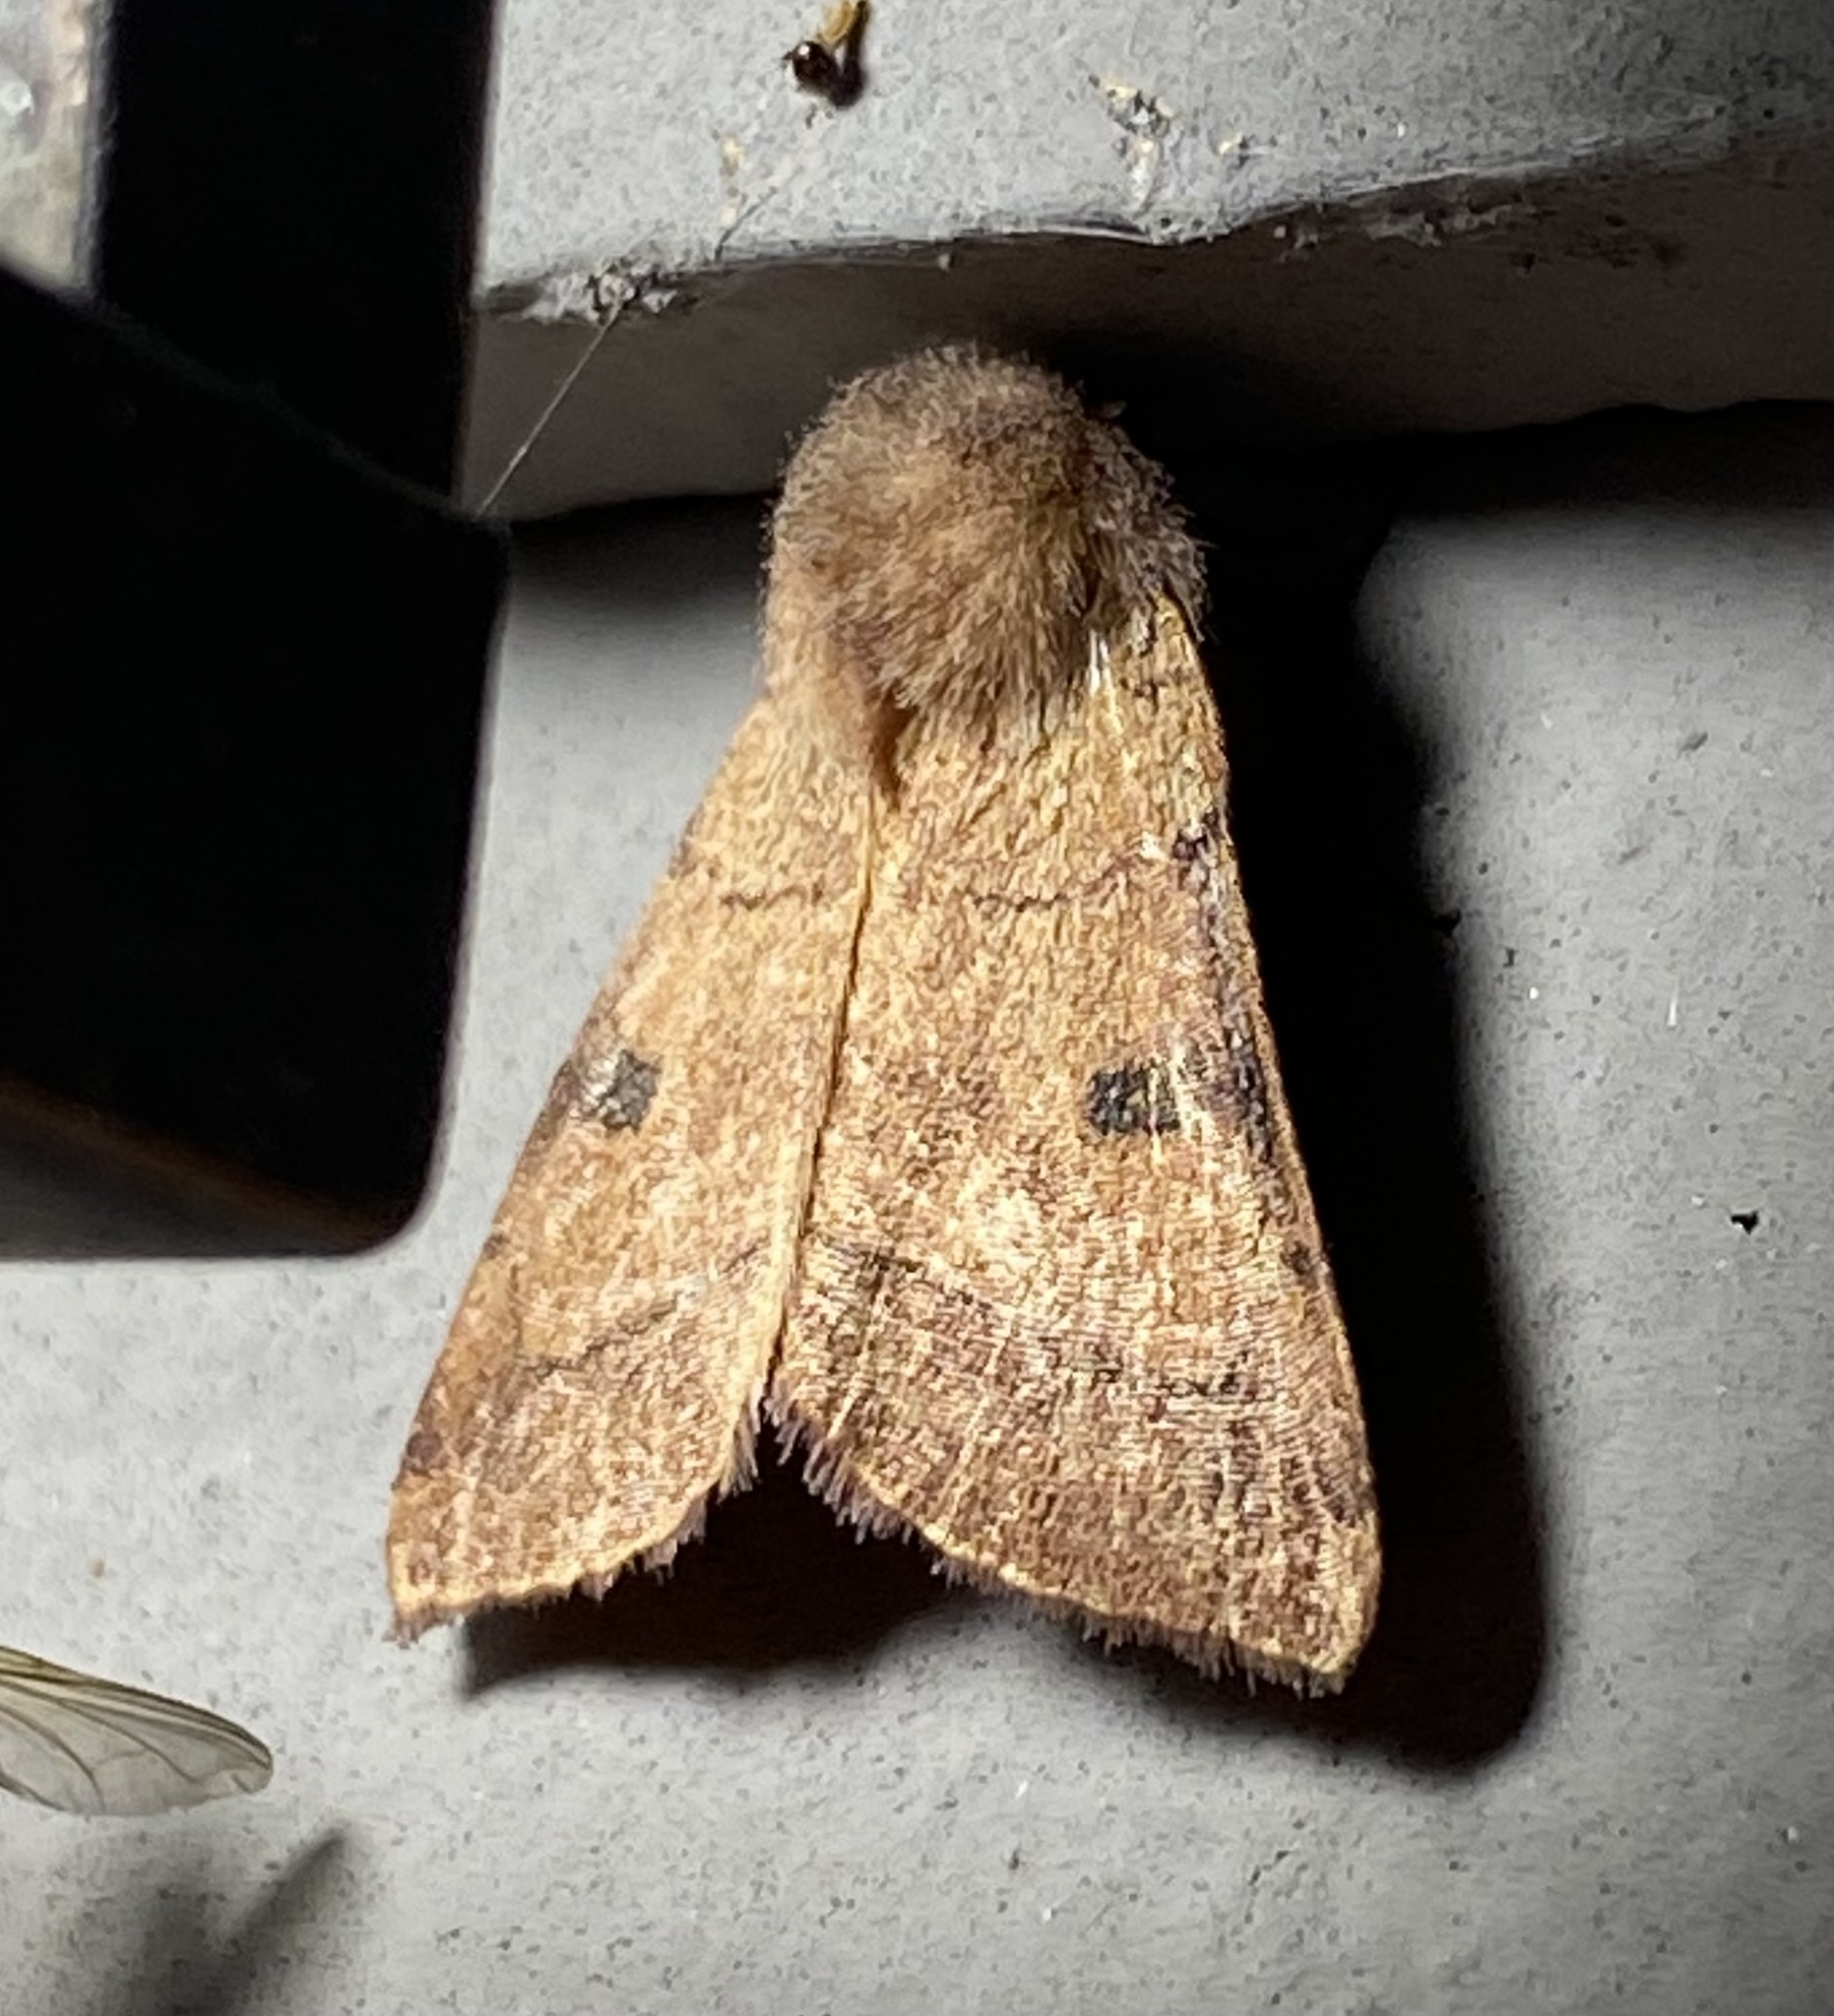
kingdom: Animalia
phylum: Arthropoda
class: Insecta
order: Lepidoptera
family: Noctuidae
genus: Choephora
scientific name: Choephora fungorum
